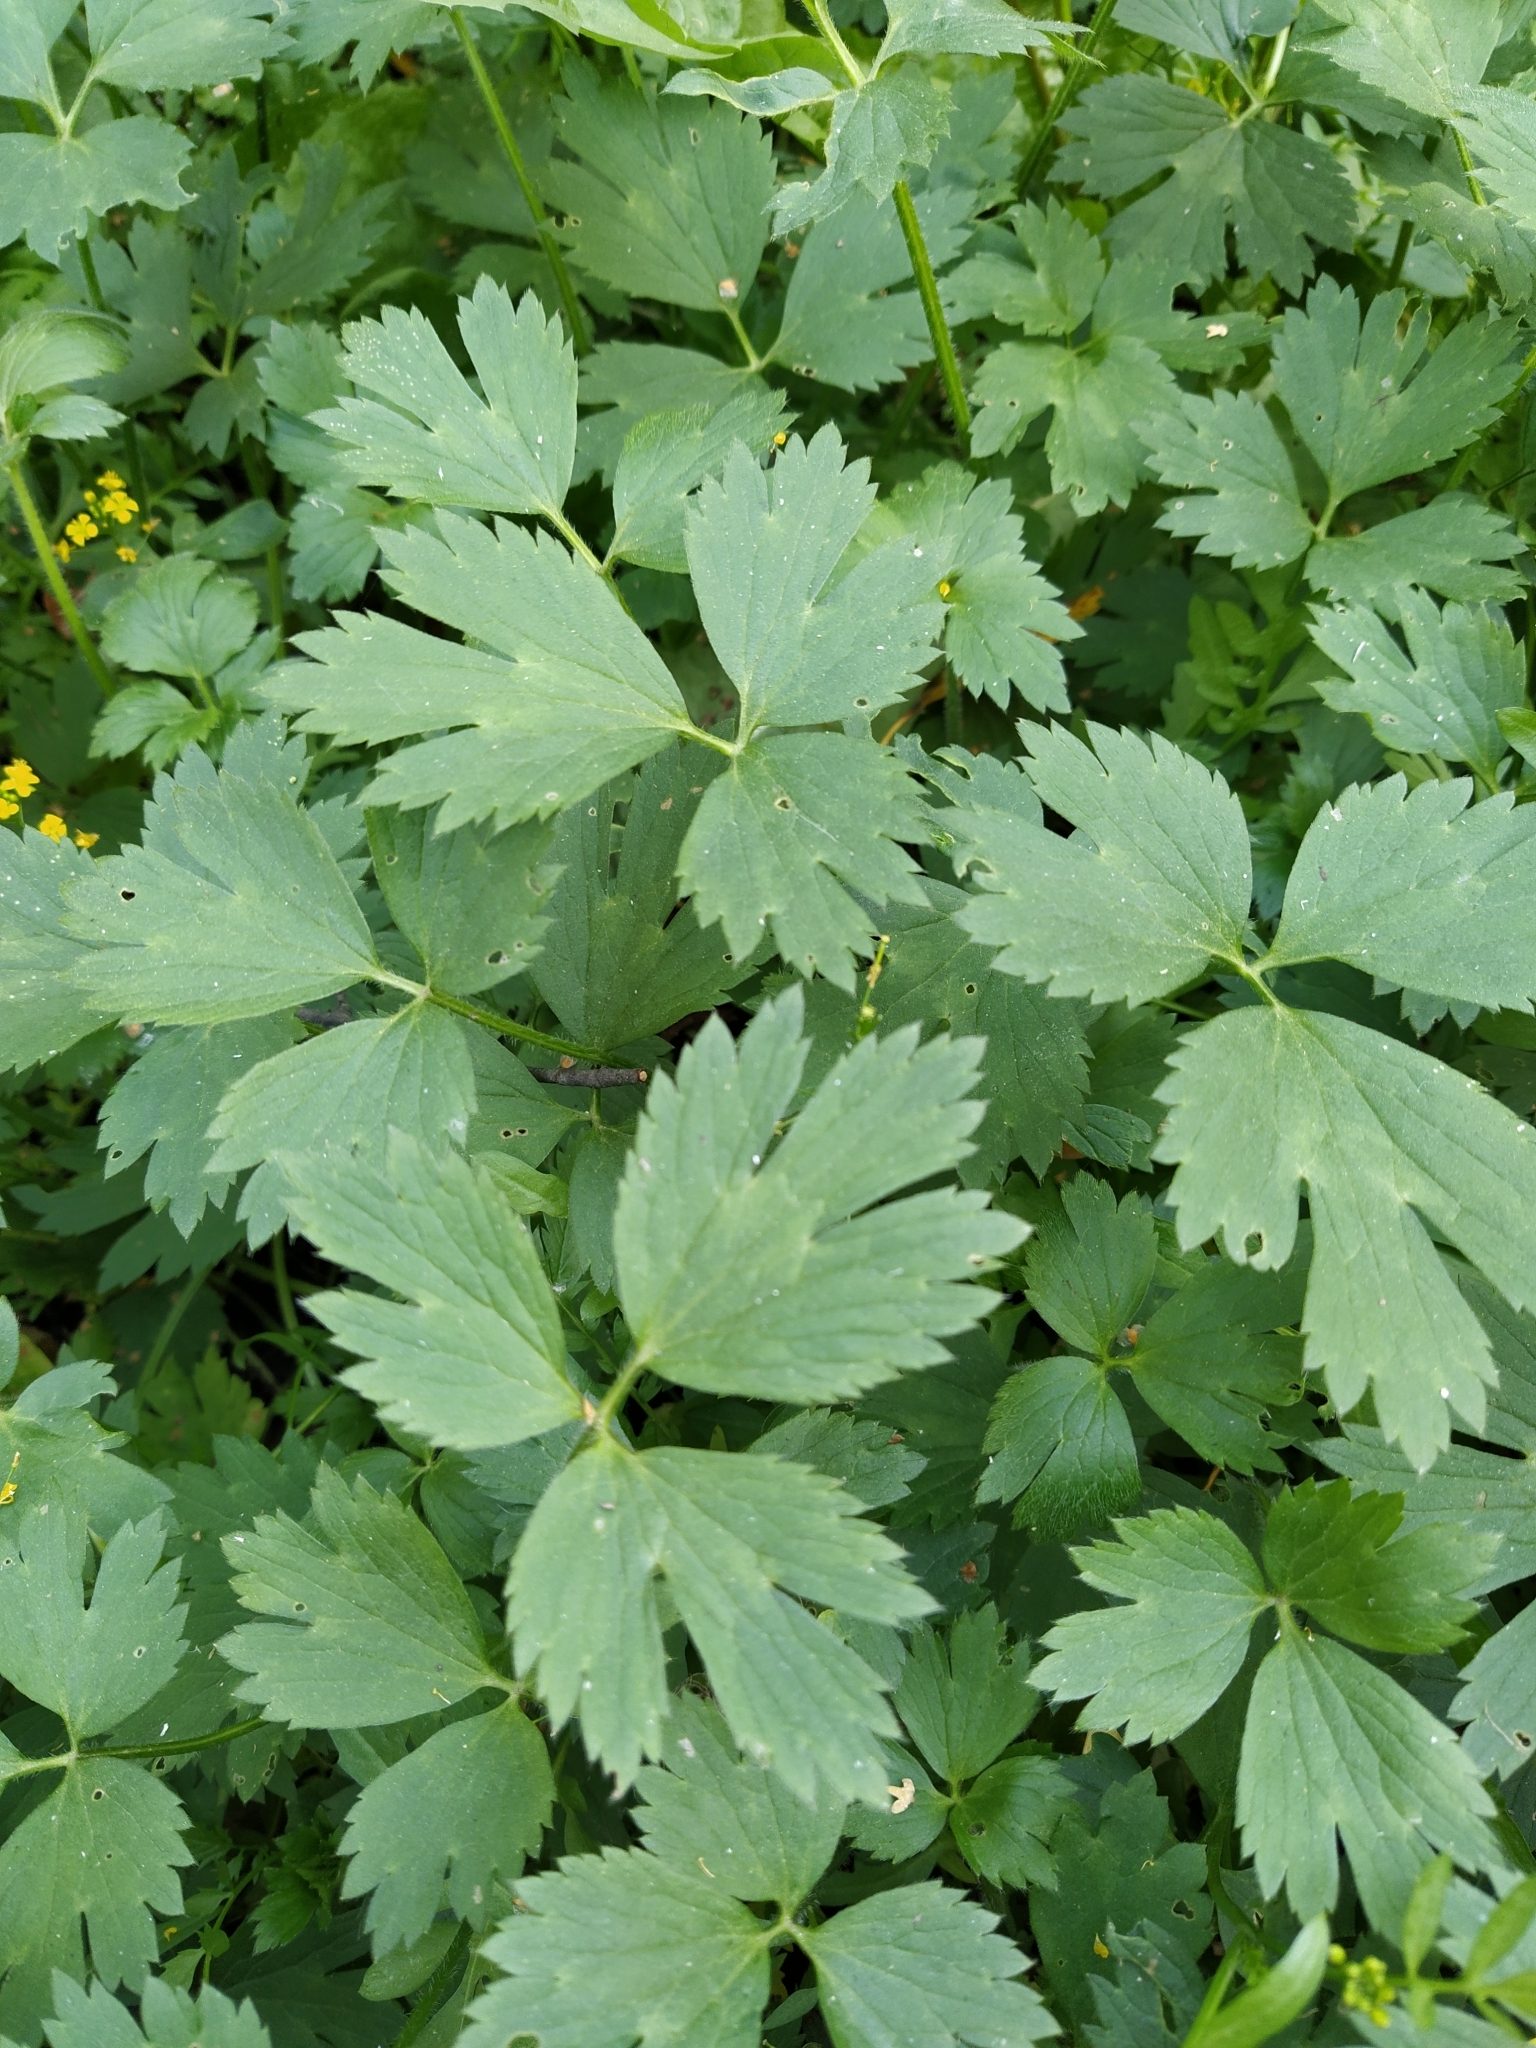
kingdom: Plantae
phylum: Tracheophyta
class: Magnoliopsida
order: Ranunculales
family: Ranunculaceae
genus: Ranunculus
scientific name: Ranunculus repens
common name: Creeping buttercup
